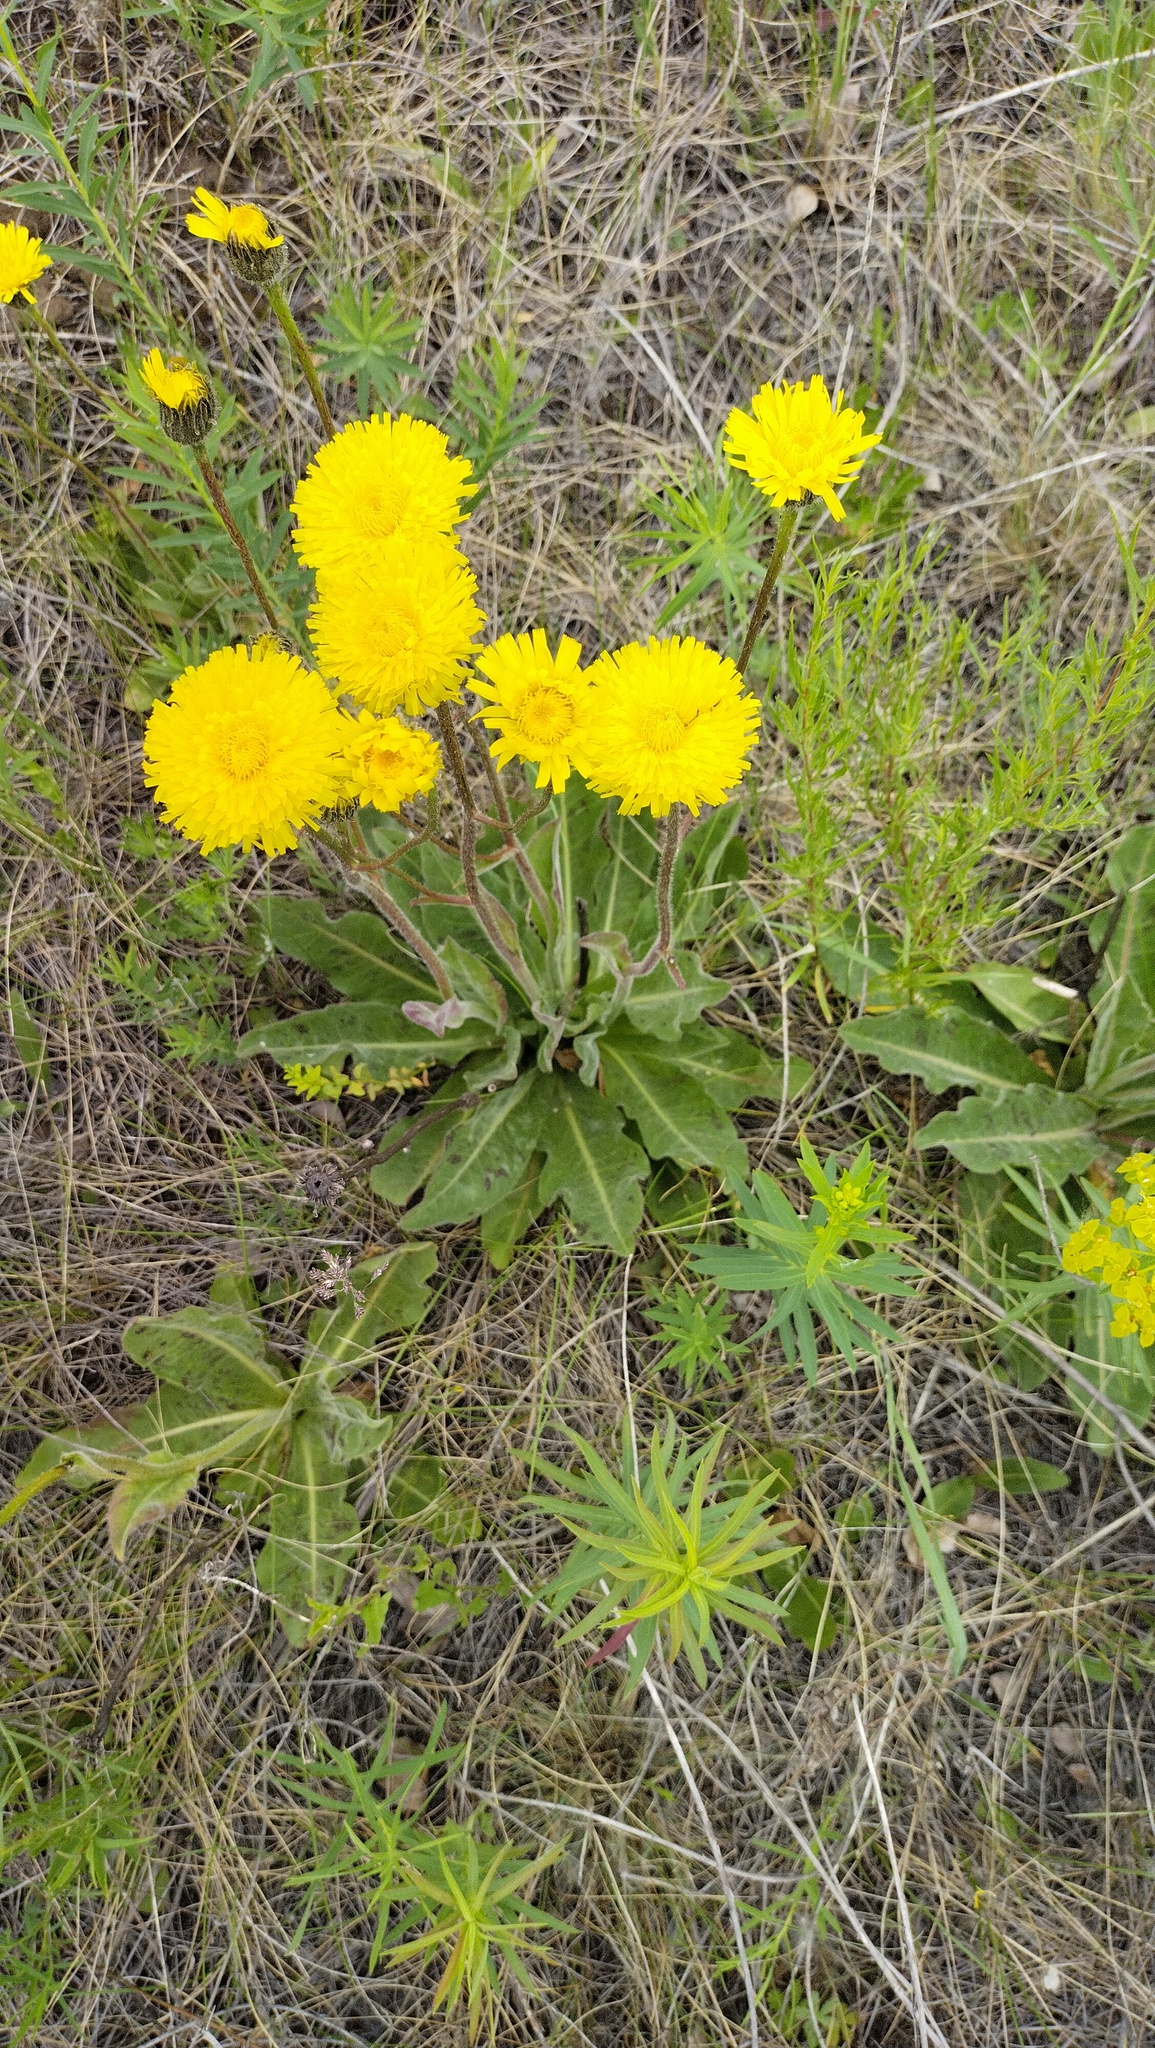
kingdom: Plantae
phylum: Tracheophyta
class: Magnoliopsida
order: Asterales
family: Asteraceae
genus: Trommsdorffia
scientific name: Trommsdorffia maculata
